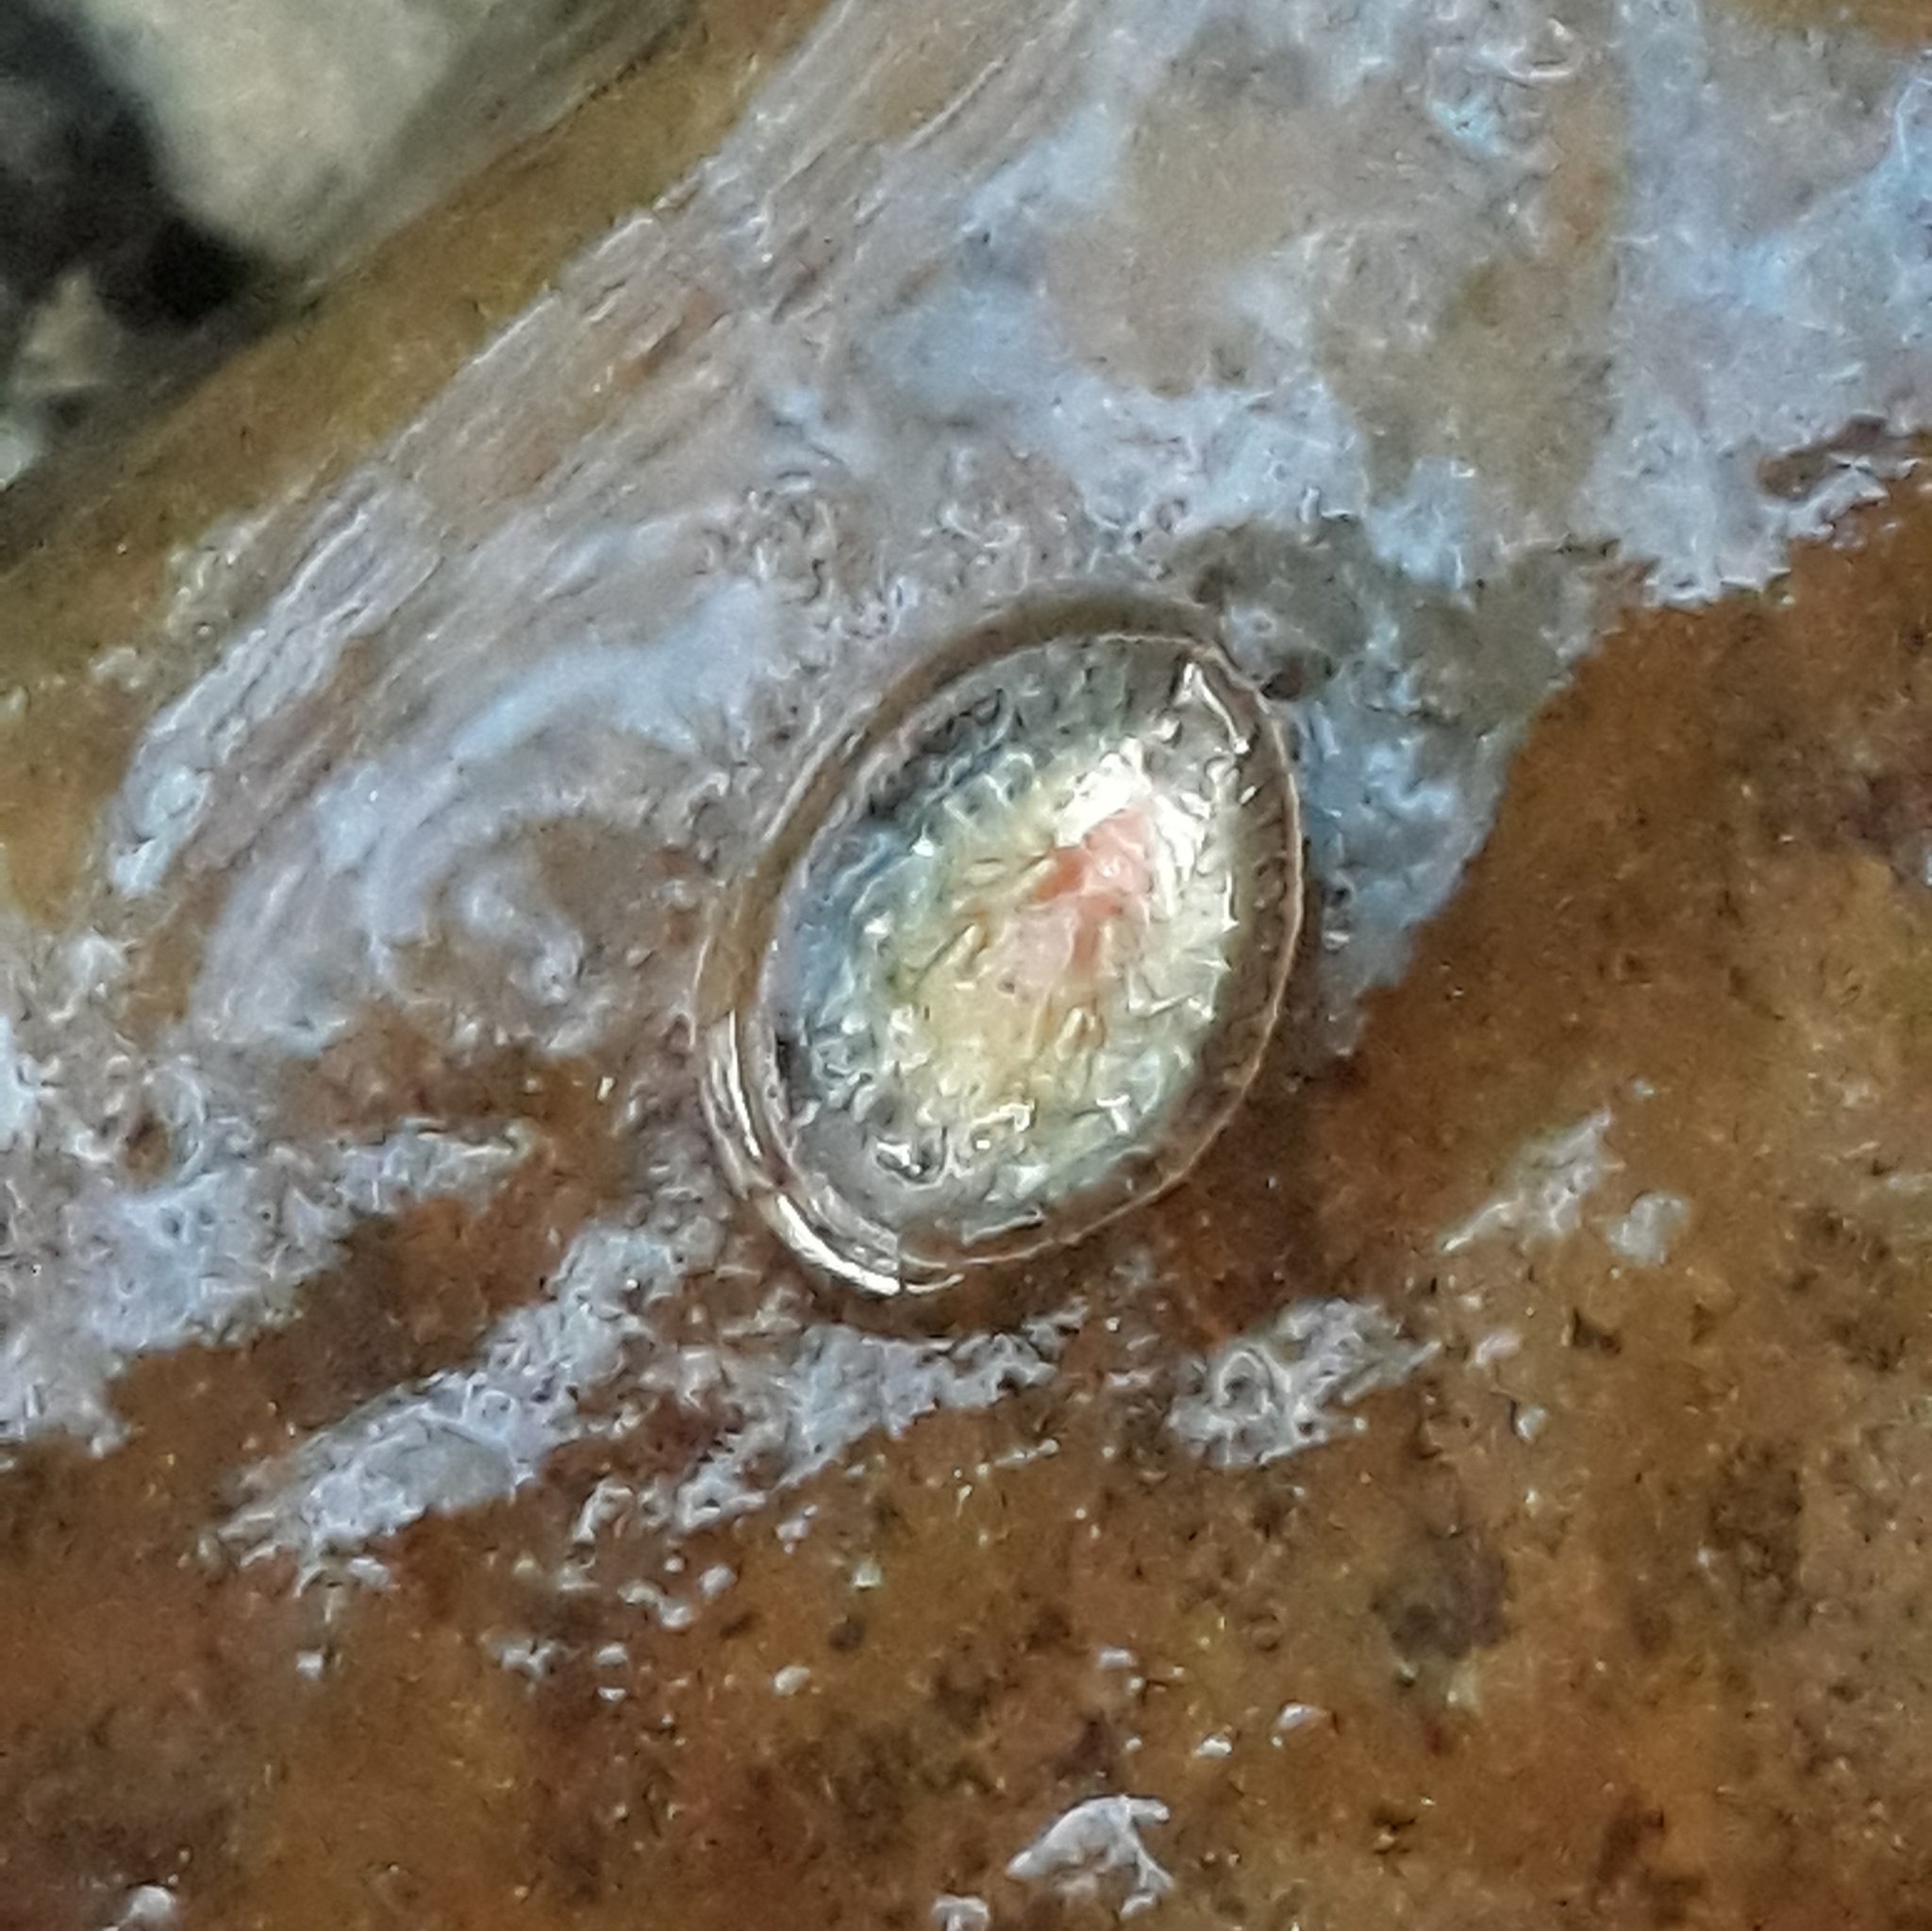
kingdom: Animalia
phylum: Arthropoda
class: Insecta
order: Coleoptera
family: Psephenidae
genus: Psephenus
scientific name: Psephenus herricki
